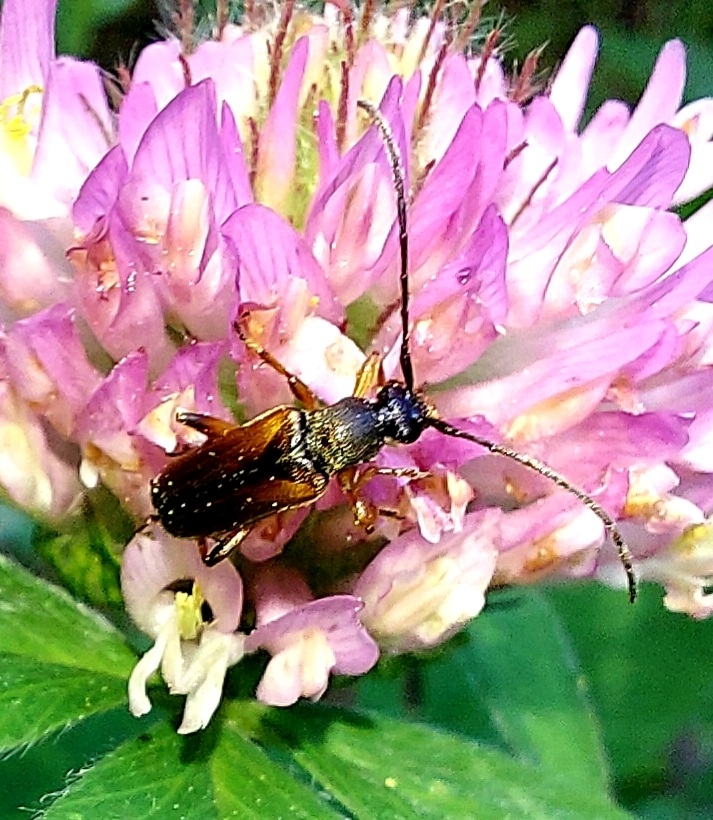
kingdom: Animalia
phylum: Arthropoda
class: Insecta
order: Coleoptera
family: Cerambycidae
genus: Alosterna
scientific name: Alosterna tabacicolor
